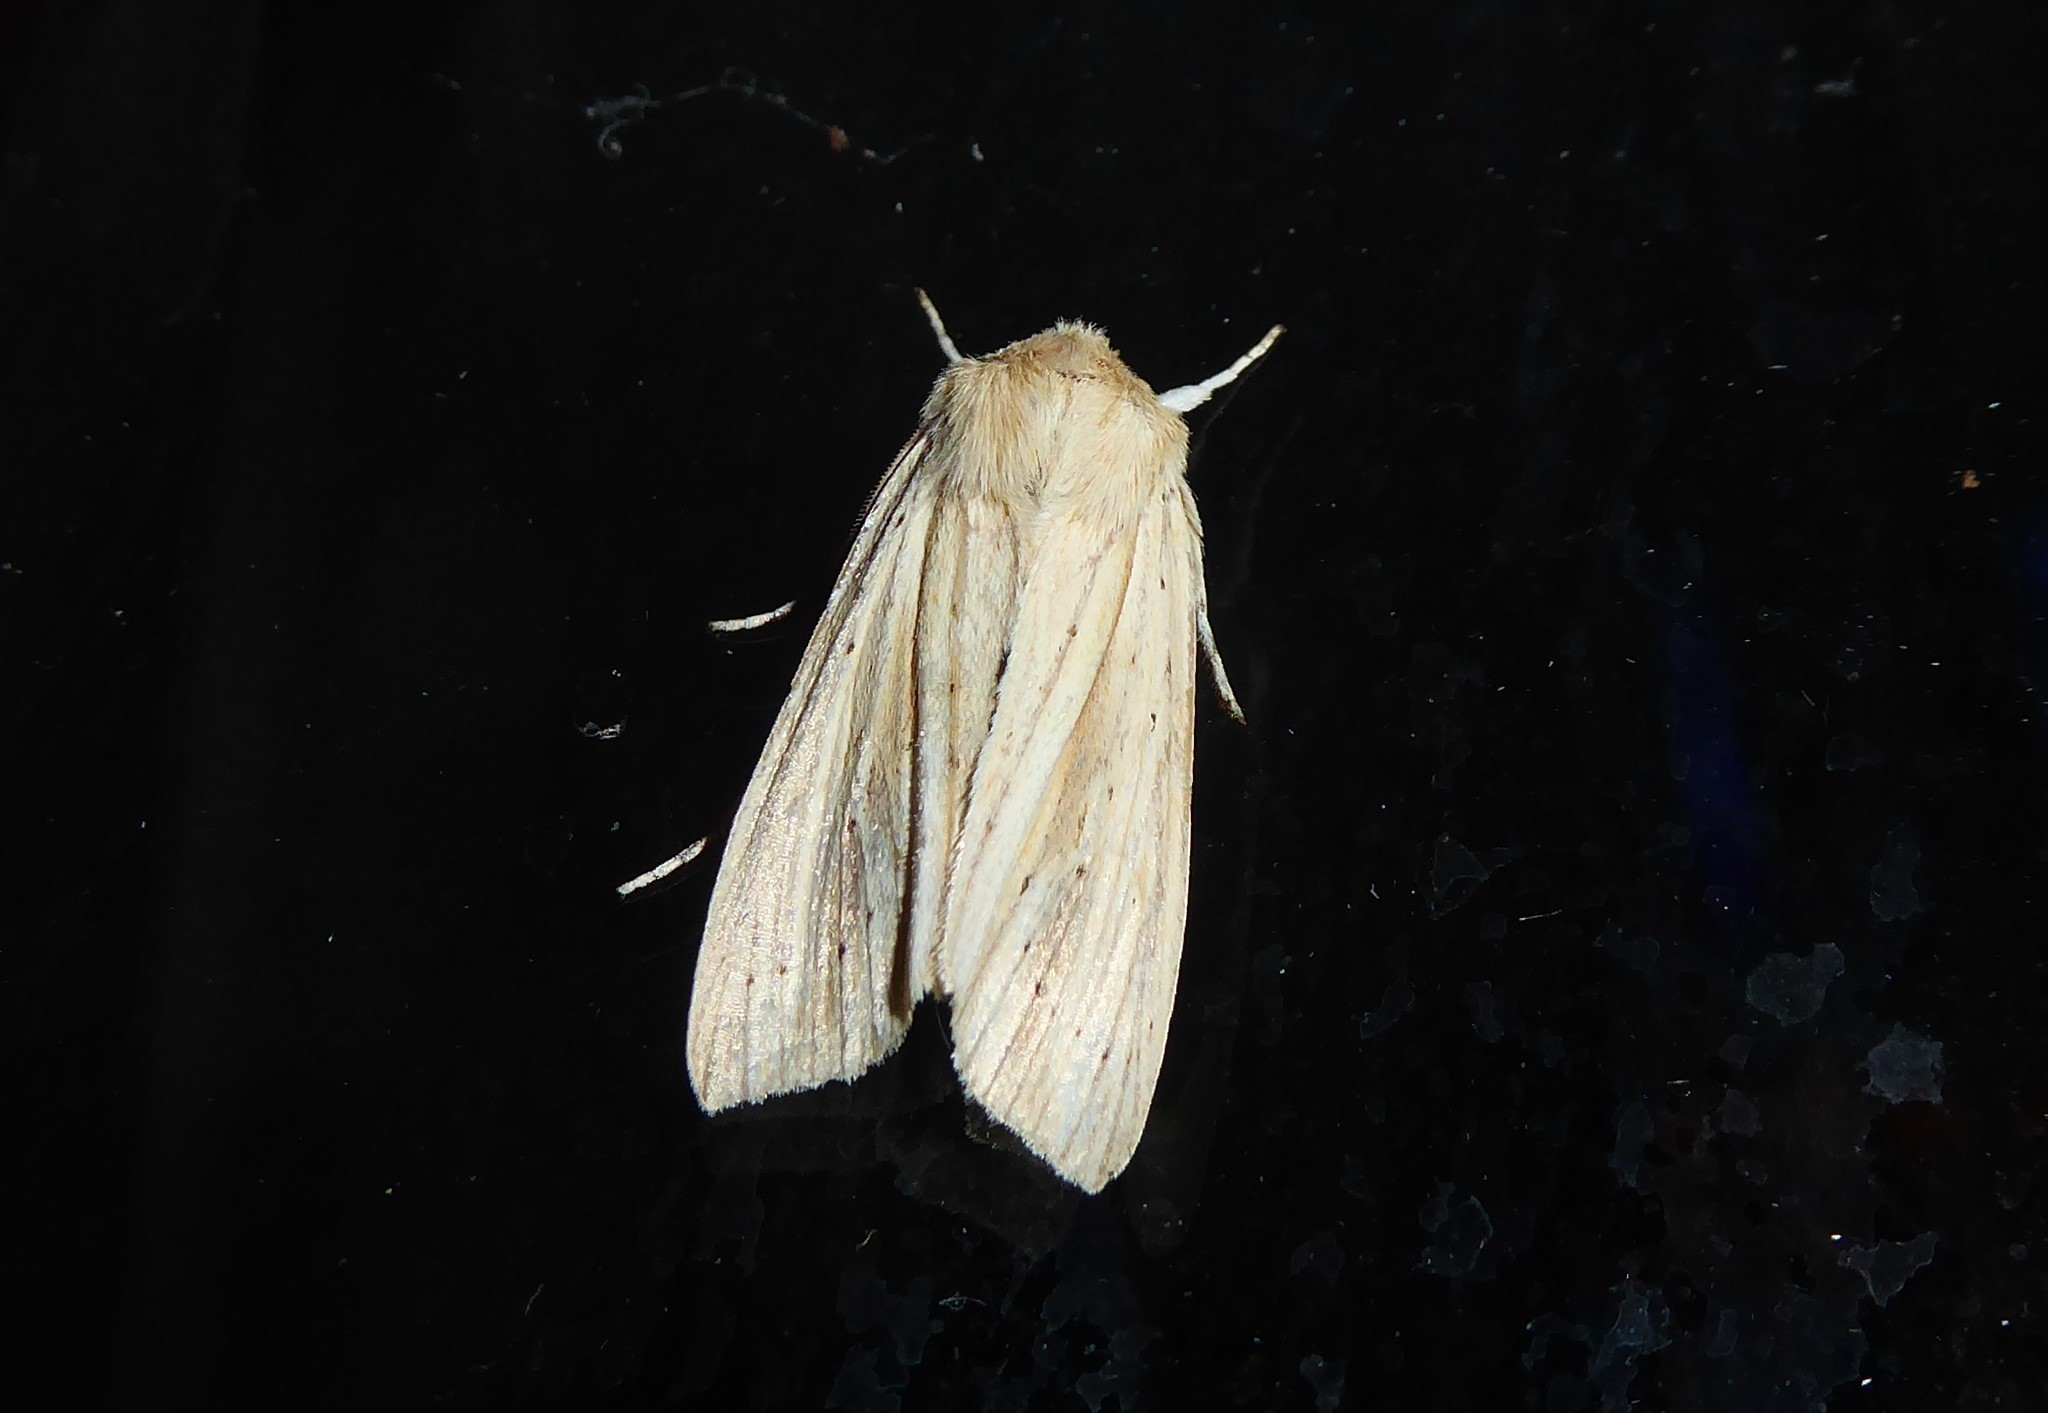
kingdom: Animalia
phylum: Arthropoda
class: Insecta
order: Lepidoptera
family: Noctuidae
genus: Ichneutica
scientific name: Ichneutica semivittata
